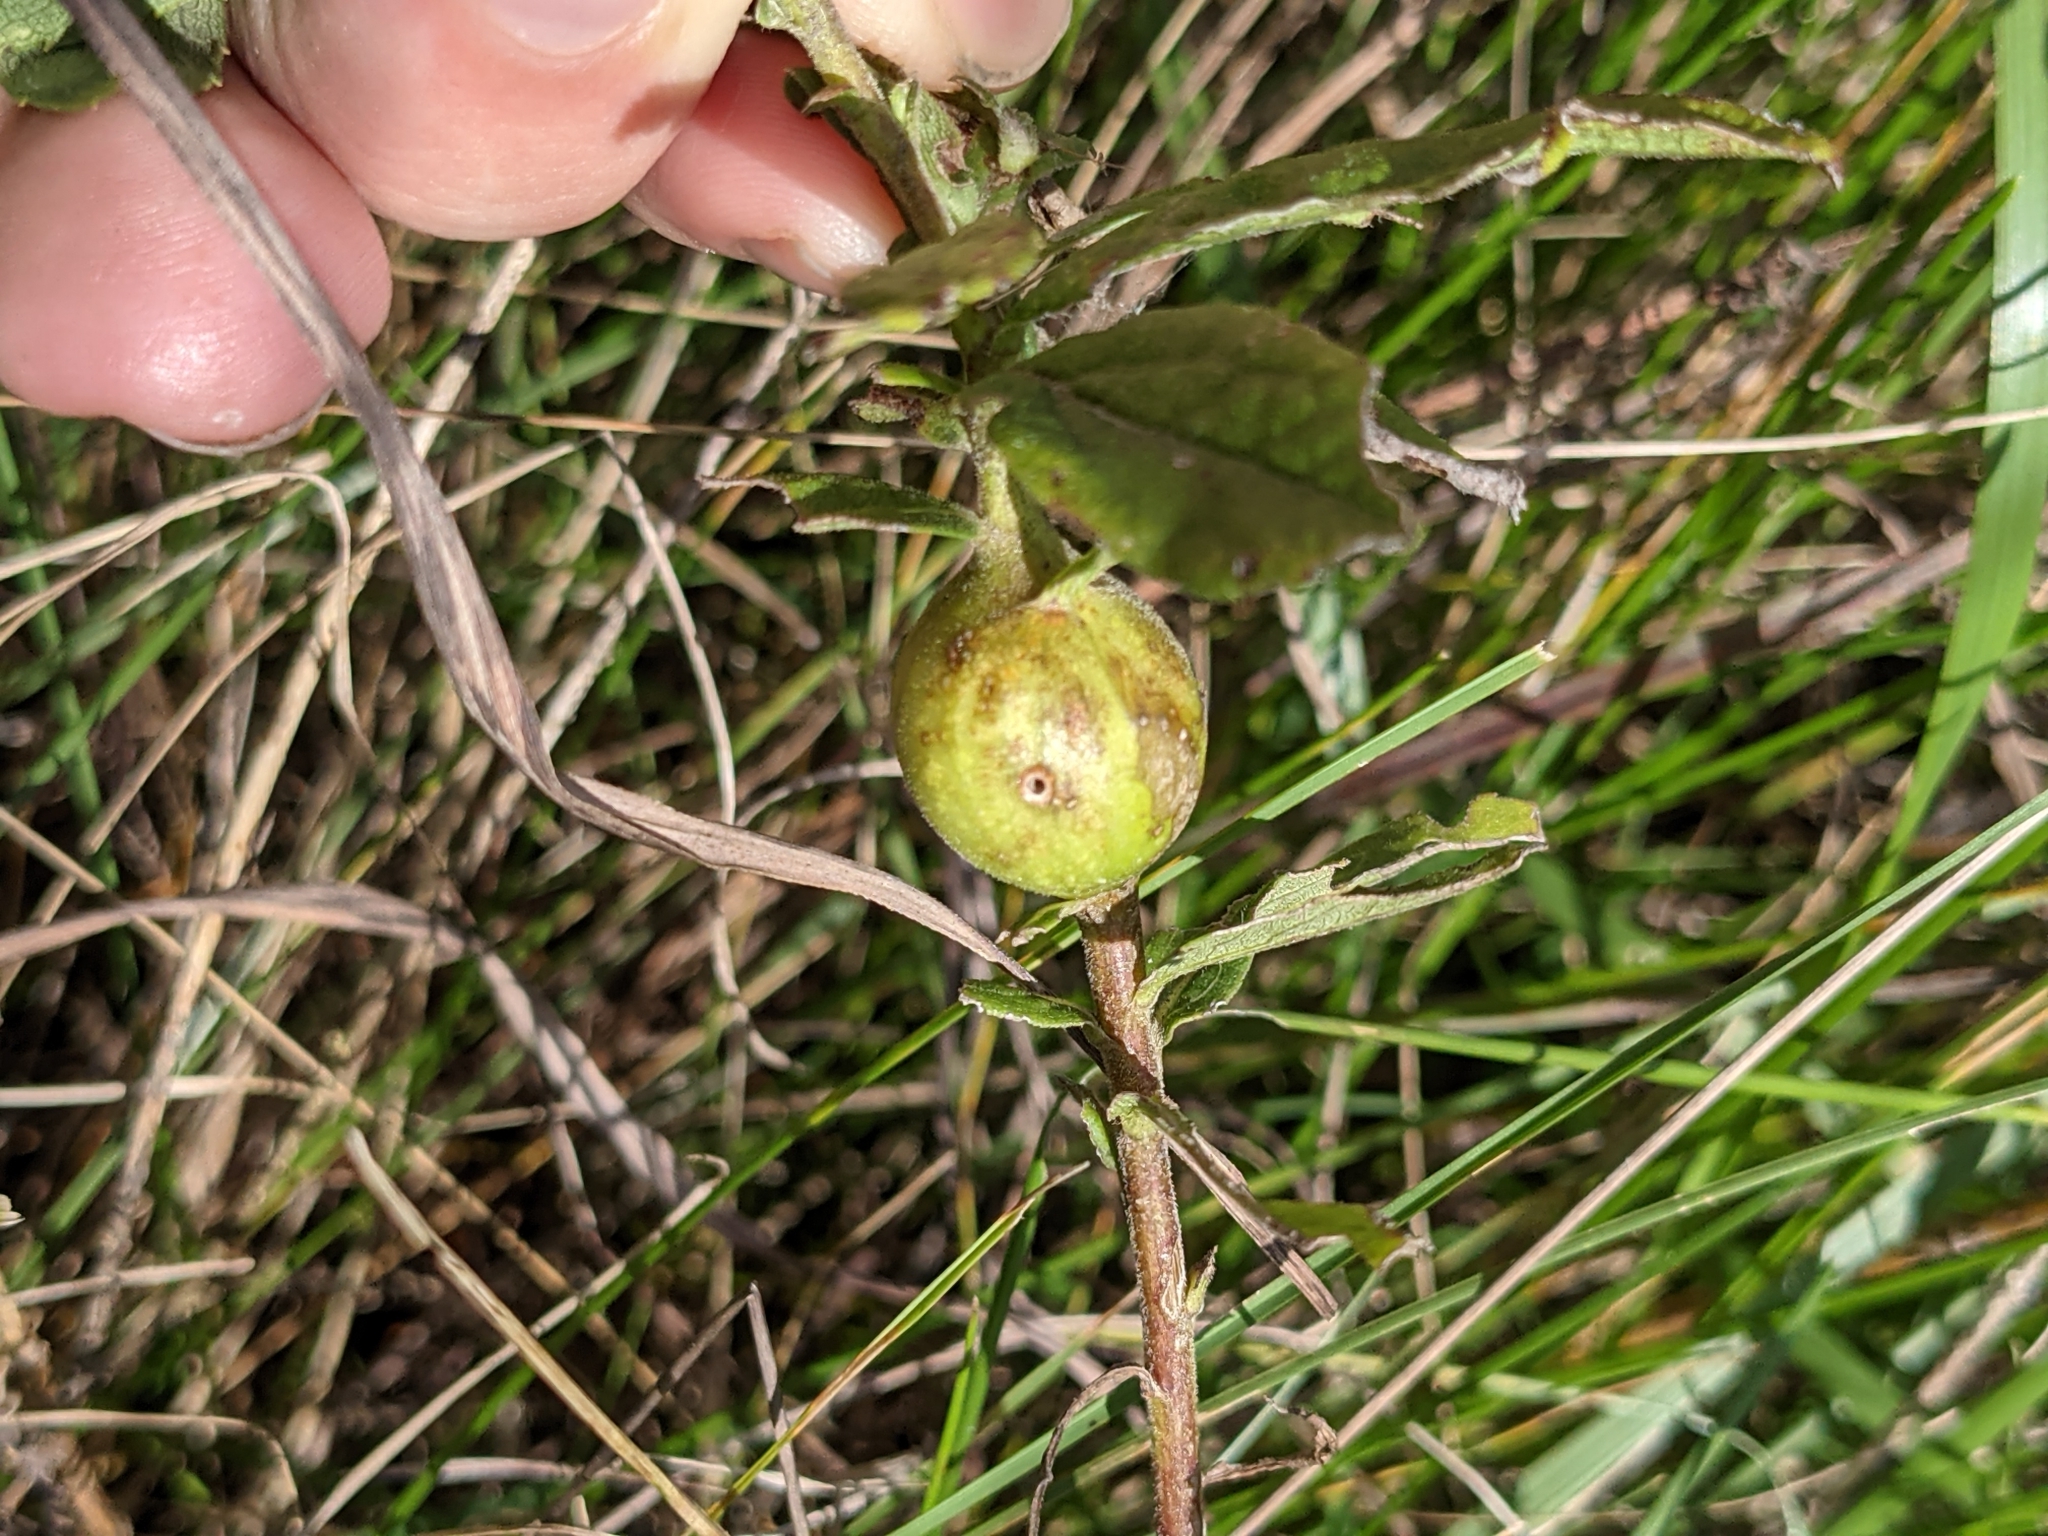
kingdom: Animalia
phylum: Arthropoda
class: Insecta
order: Diptera
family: Tephritidae
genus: Eurosta
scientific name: Eurosta solidaginis
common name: Goldenrod gall fly
